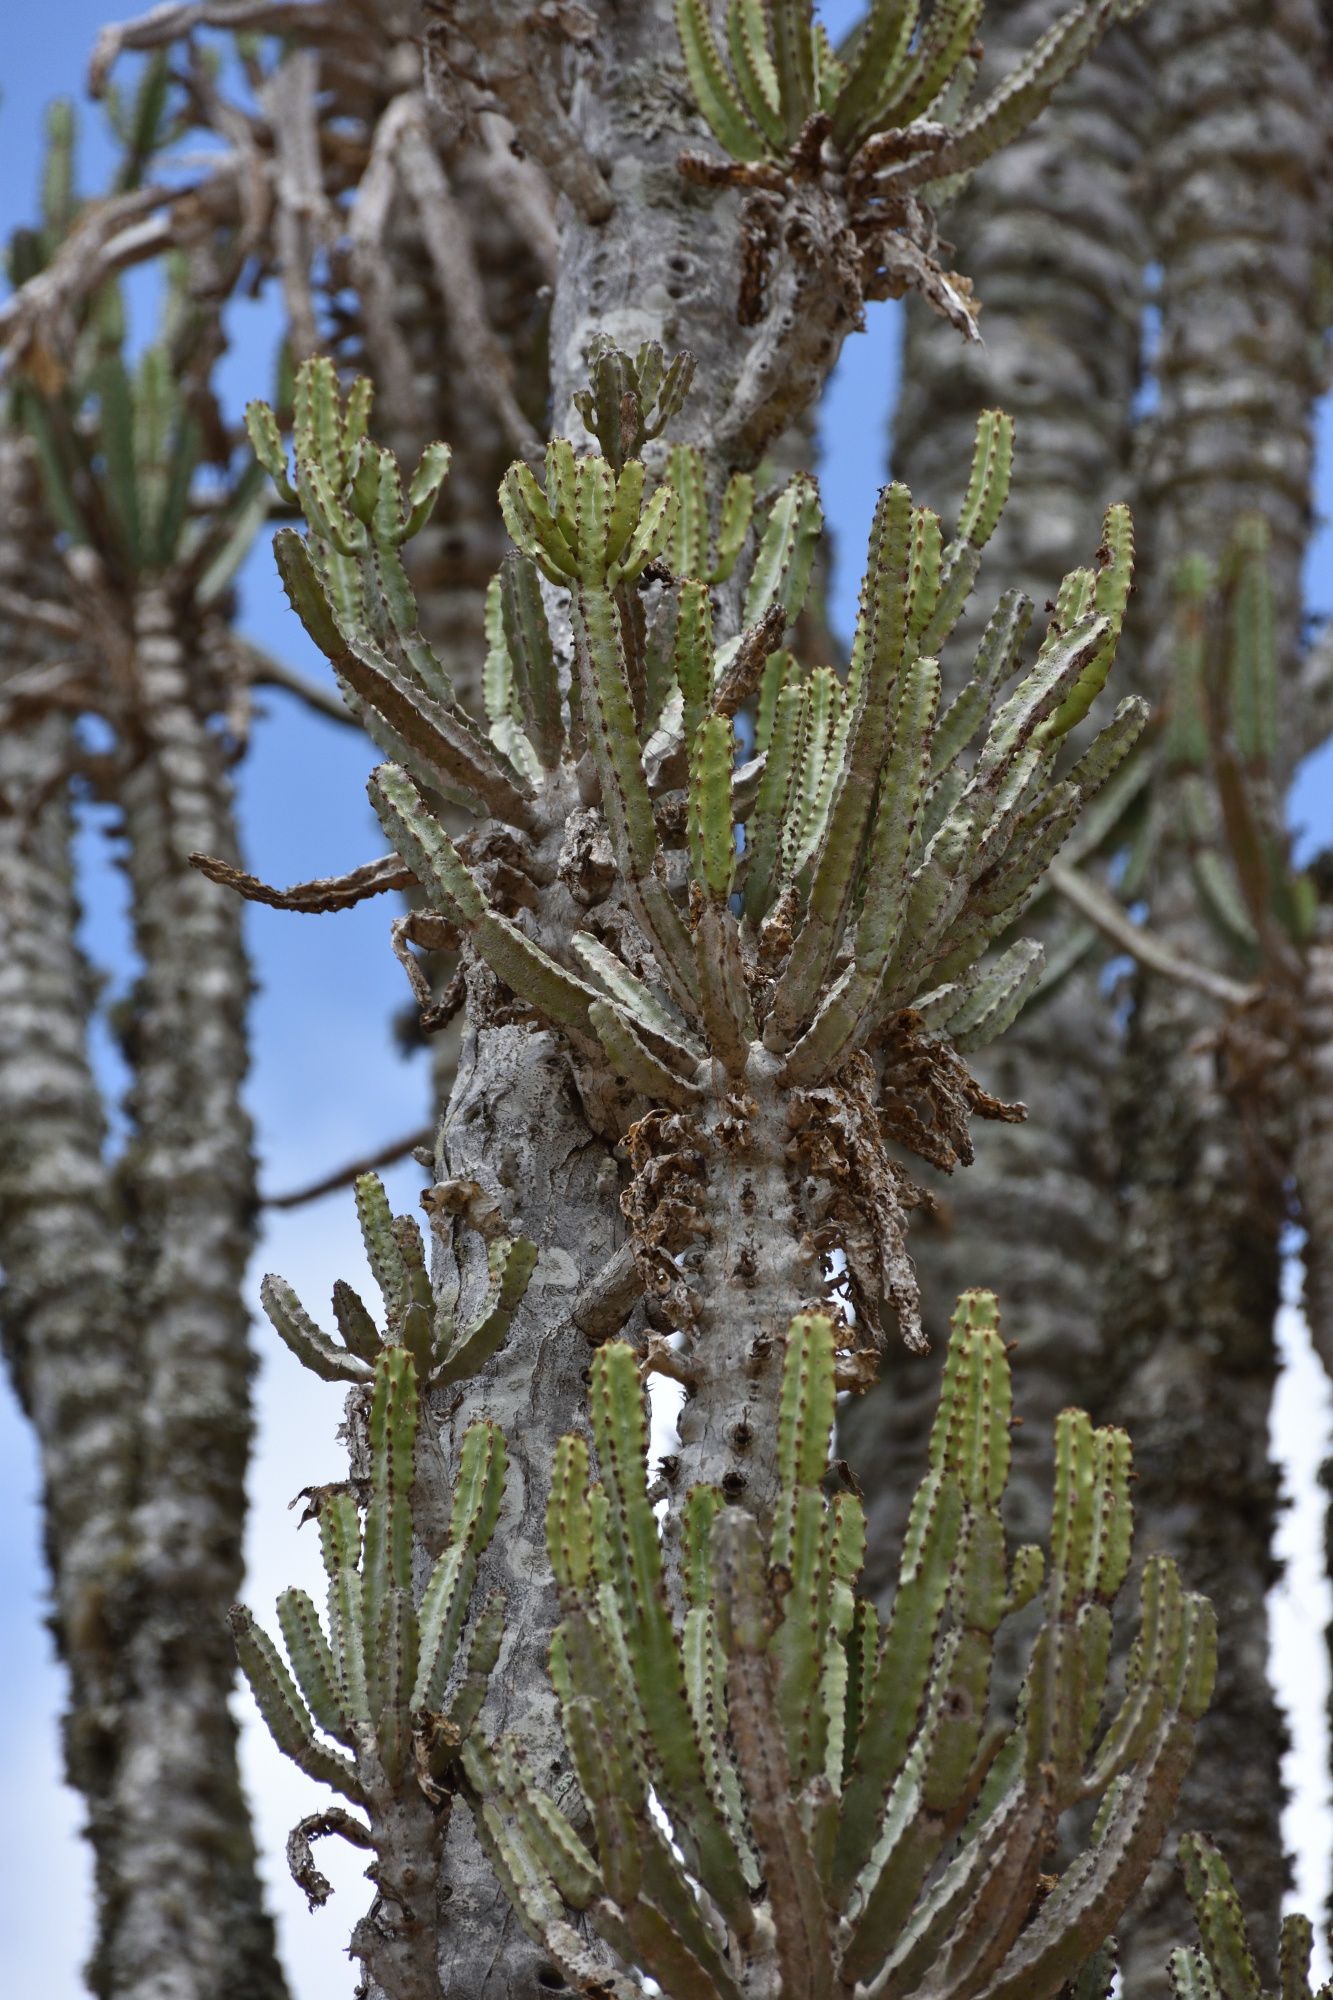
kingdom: Plantae
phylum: Tracheophyta
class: Magnoliopsida
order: Malpighiales
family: Euphorbiaceae
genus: Euphorbia
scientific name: Euphorbia tetragona
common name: Honey euphorbia
